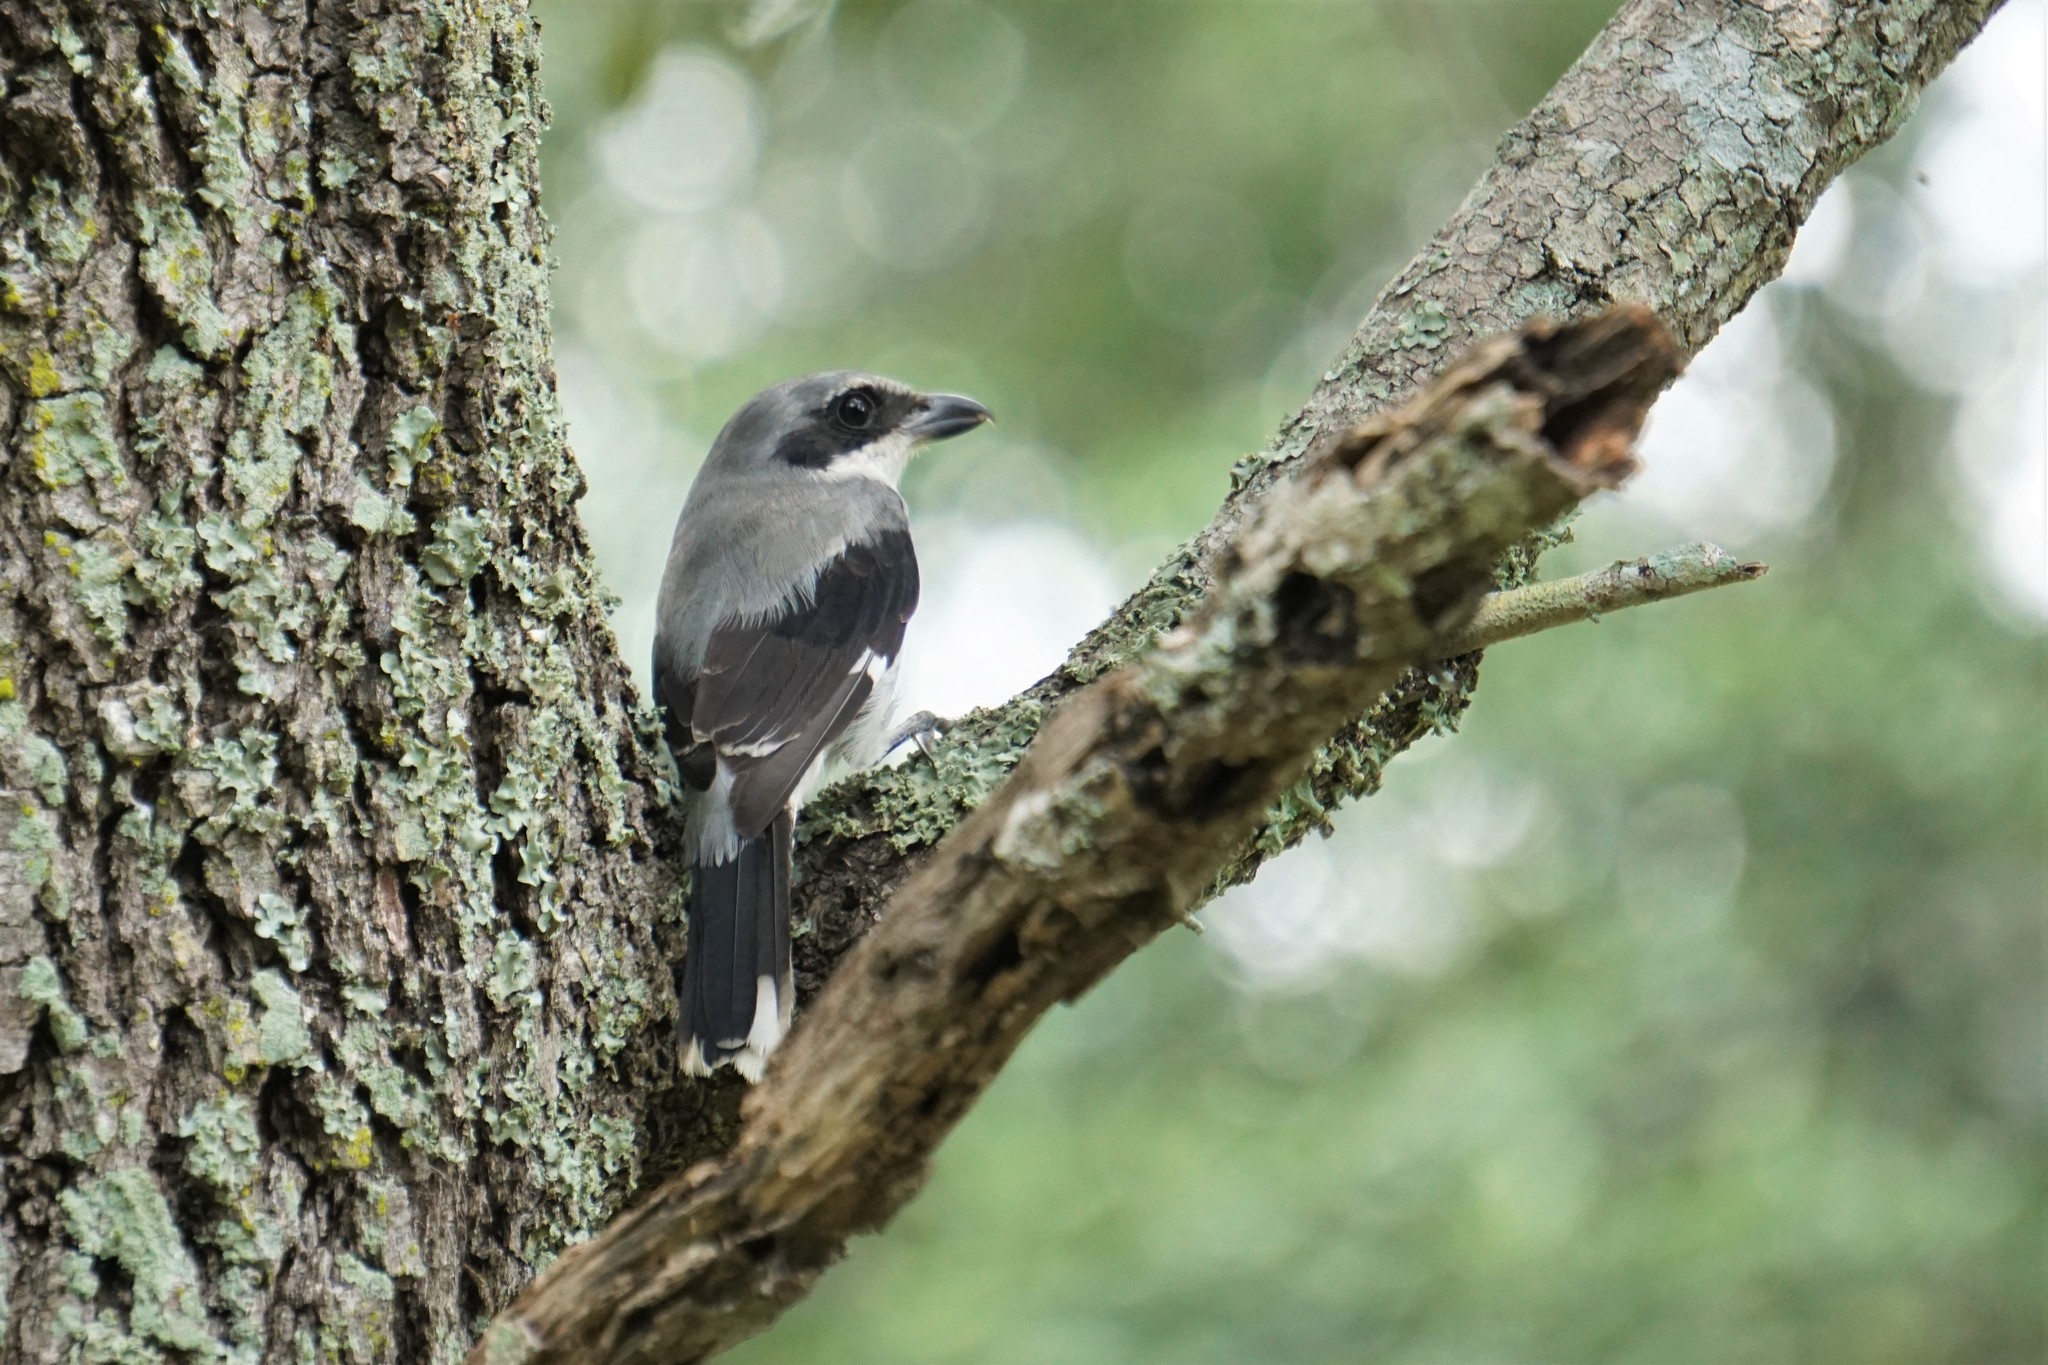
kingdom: Animalia
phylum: Chordata
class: Aves
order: Passeriformes
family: Laniidae
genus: Lanius
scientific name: Lanius ludovicianus
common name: Loggerhead shrike
